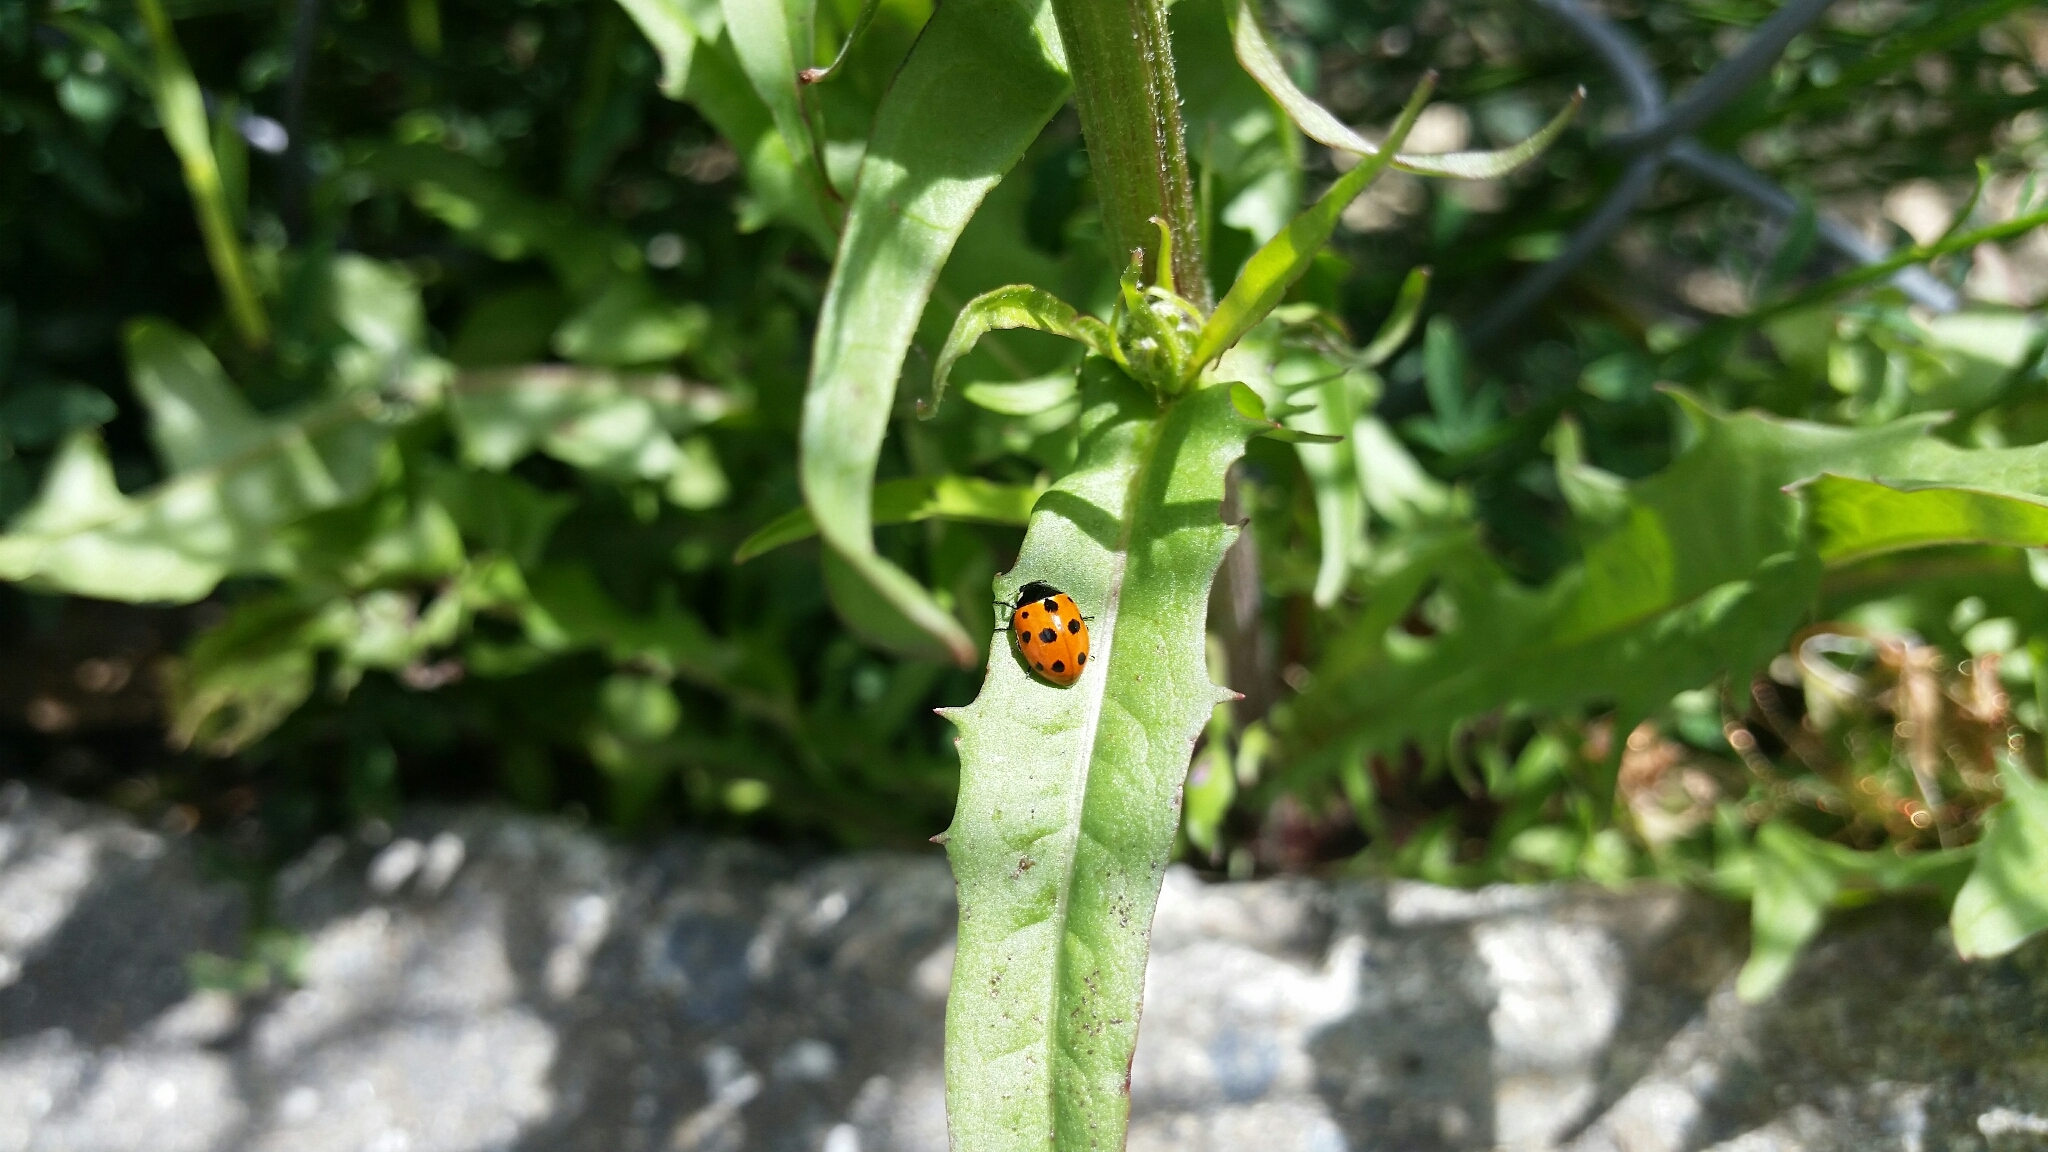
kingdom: Animalia
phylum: Arthropoda
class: Insecta
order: Coleoptera
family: Coccinellidae
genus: Coccinella
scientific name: Coccinella undecimpunctata
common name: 11-spot ladybird
